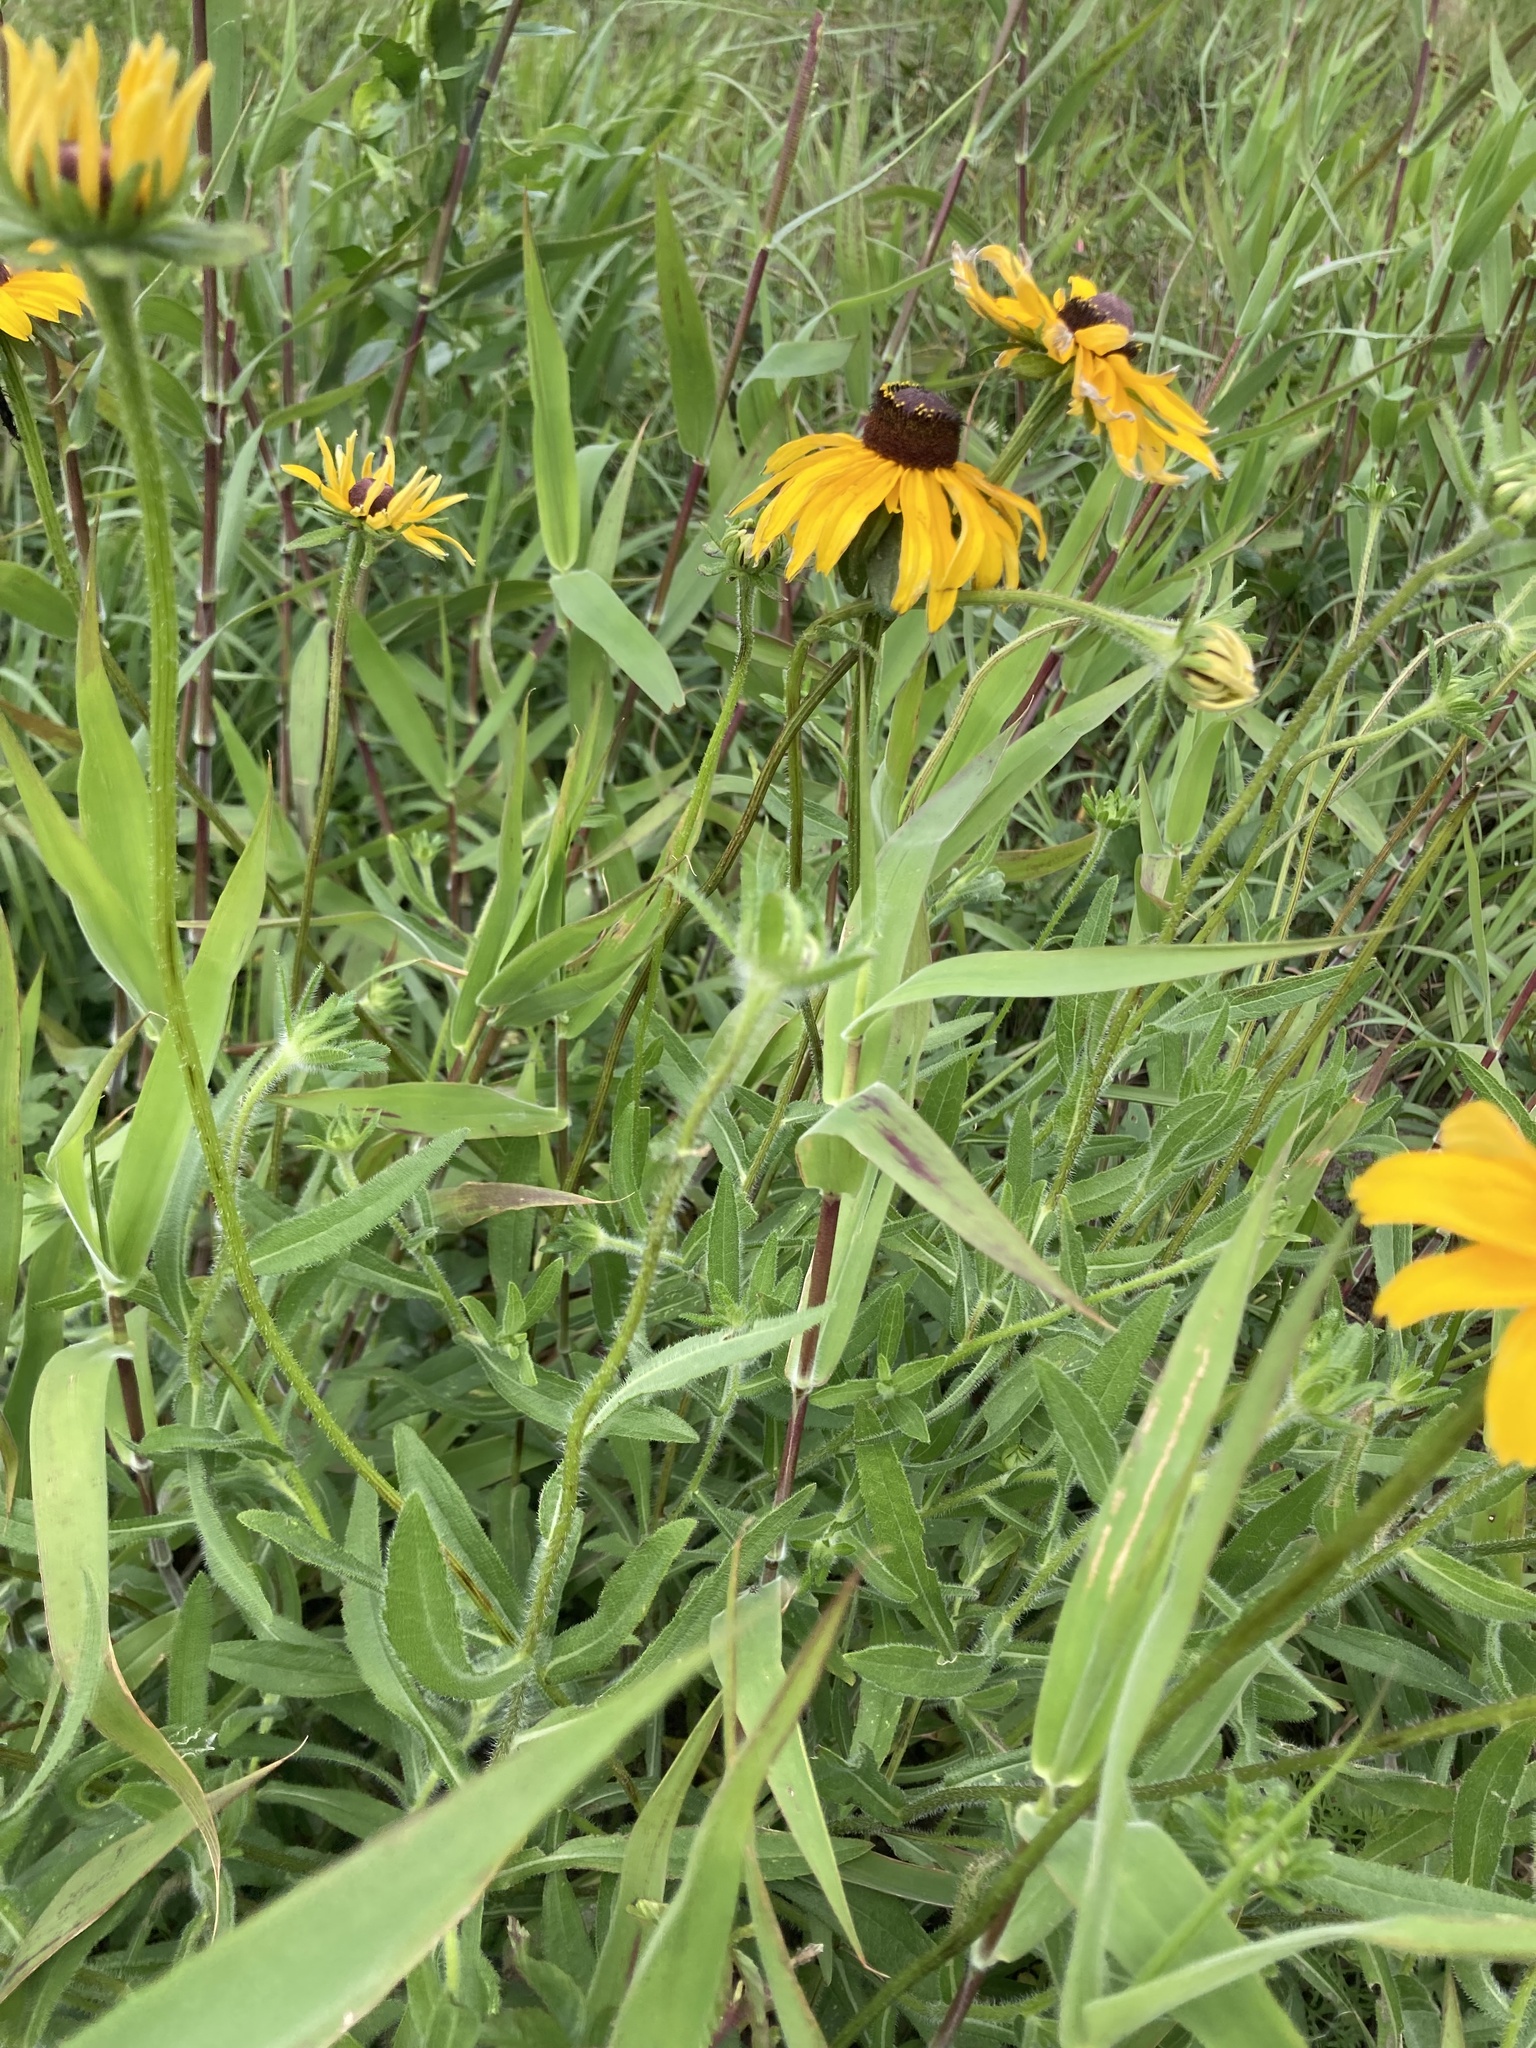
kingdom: Plantae
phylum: Tracheophyta
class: Magnoliopsida
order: Asterales
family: Asteraceae
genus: Rudbeckia
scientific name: Rudbeckia hirta
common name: Black-eyed-susan
